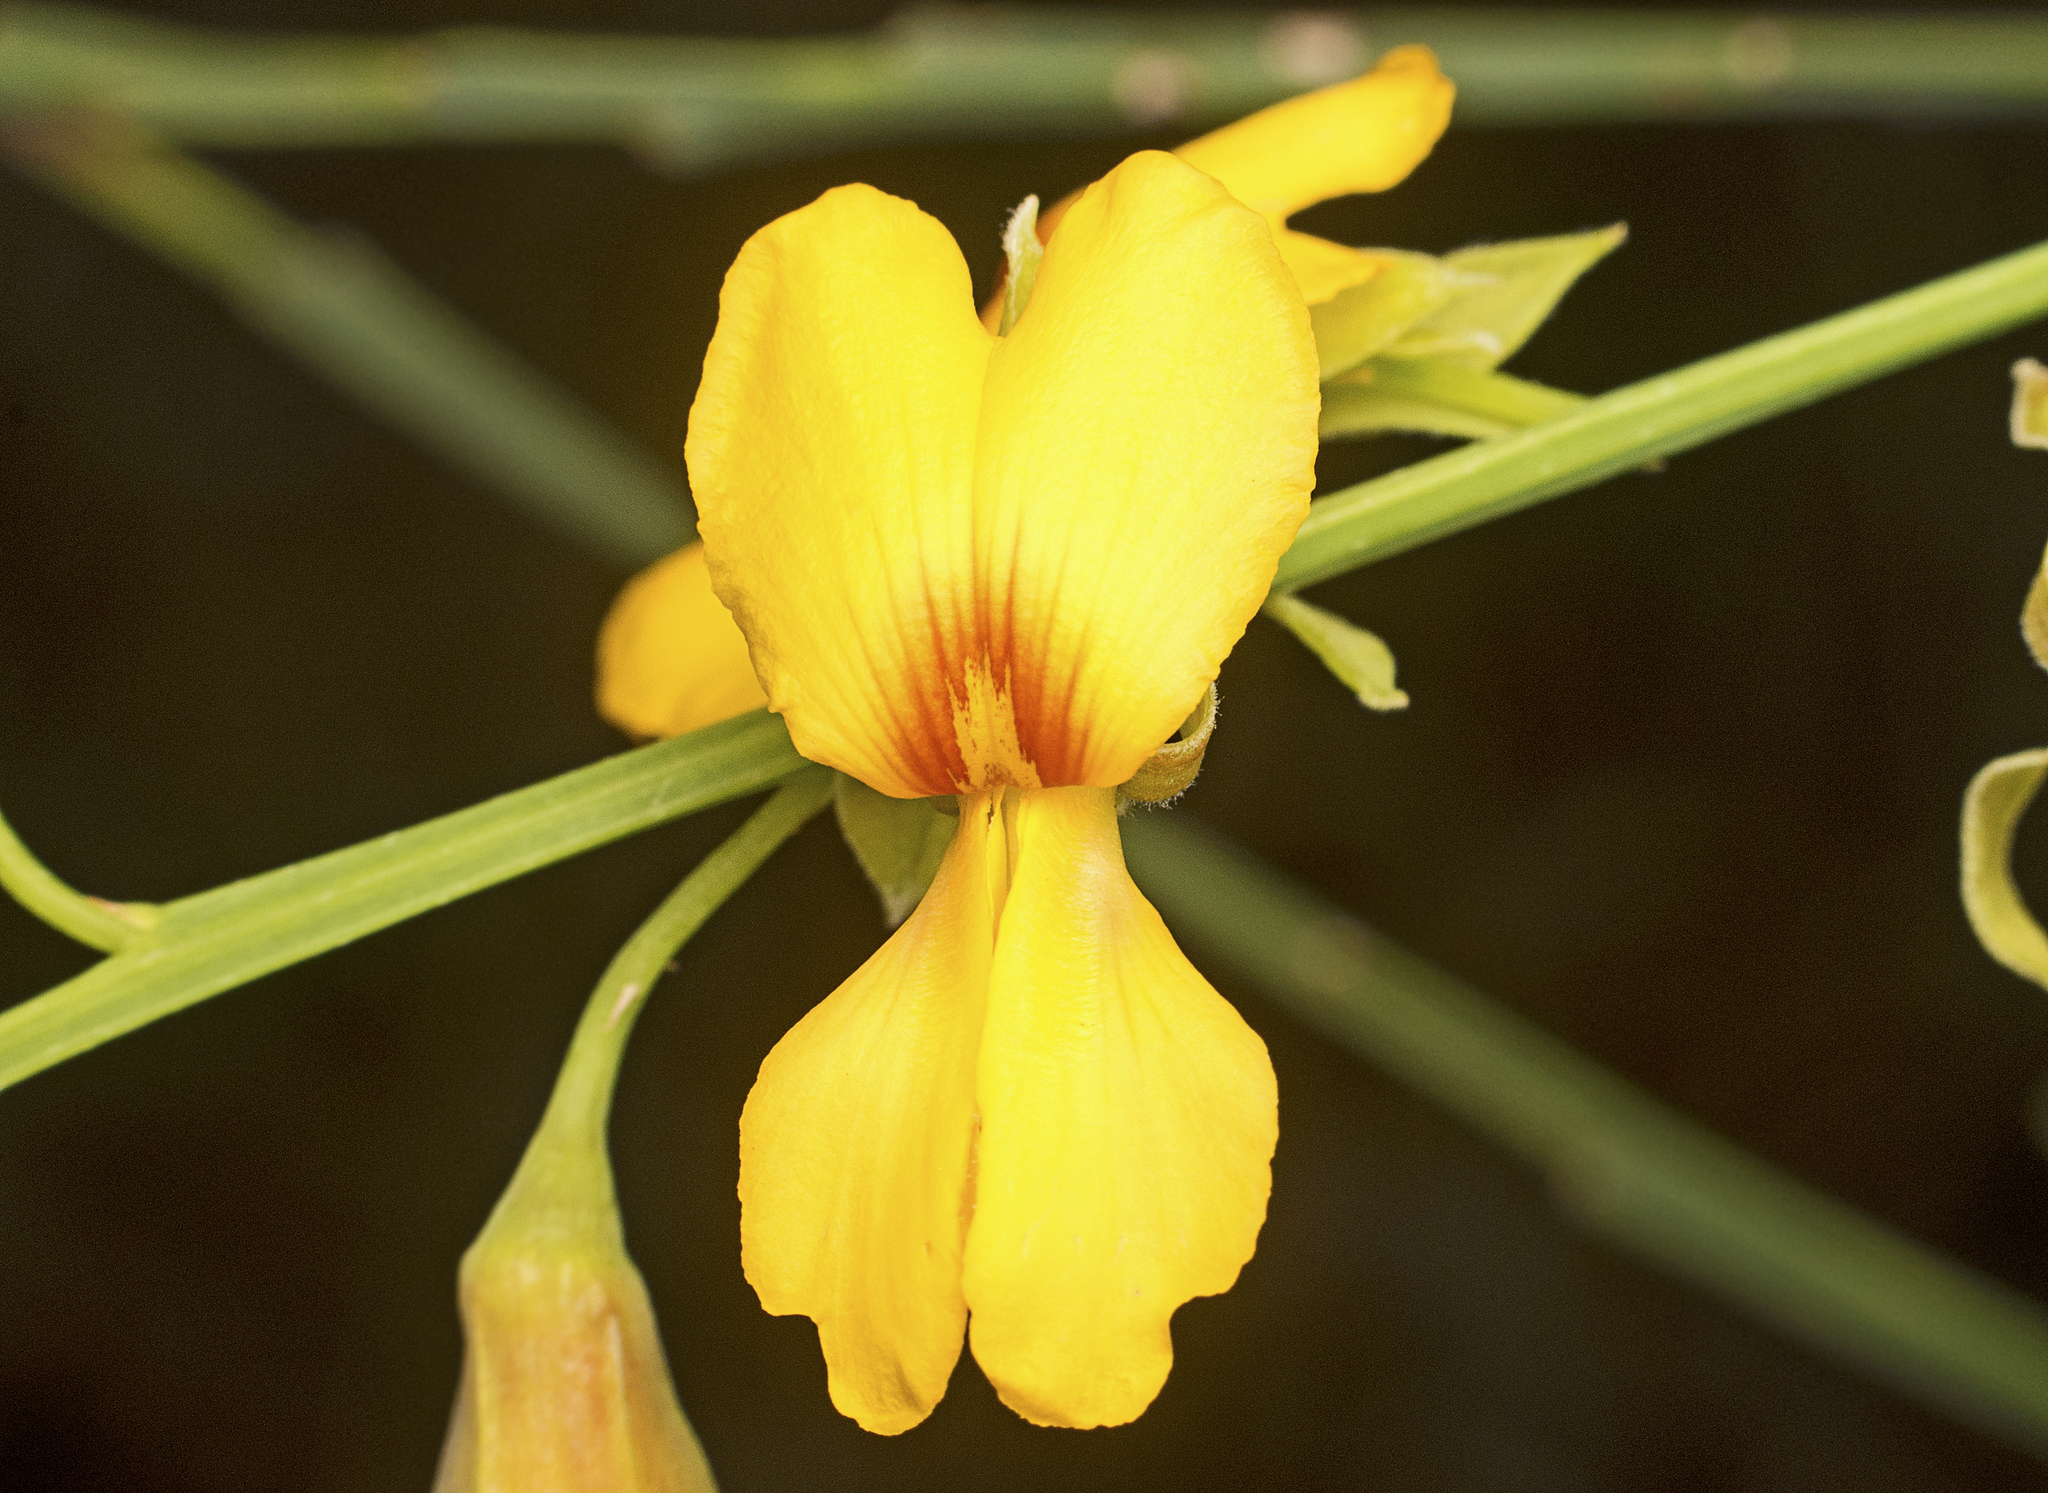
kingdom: Plantae
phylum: Tracheophyta
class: Magnoliopsida
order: Fabales
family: Fabaceae
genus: Jacksonia
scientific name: Jacksonia sternbergiana
